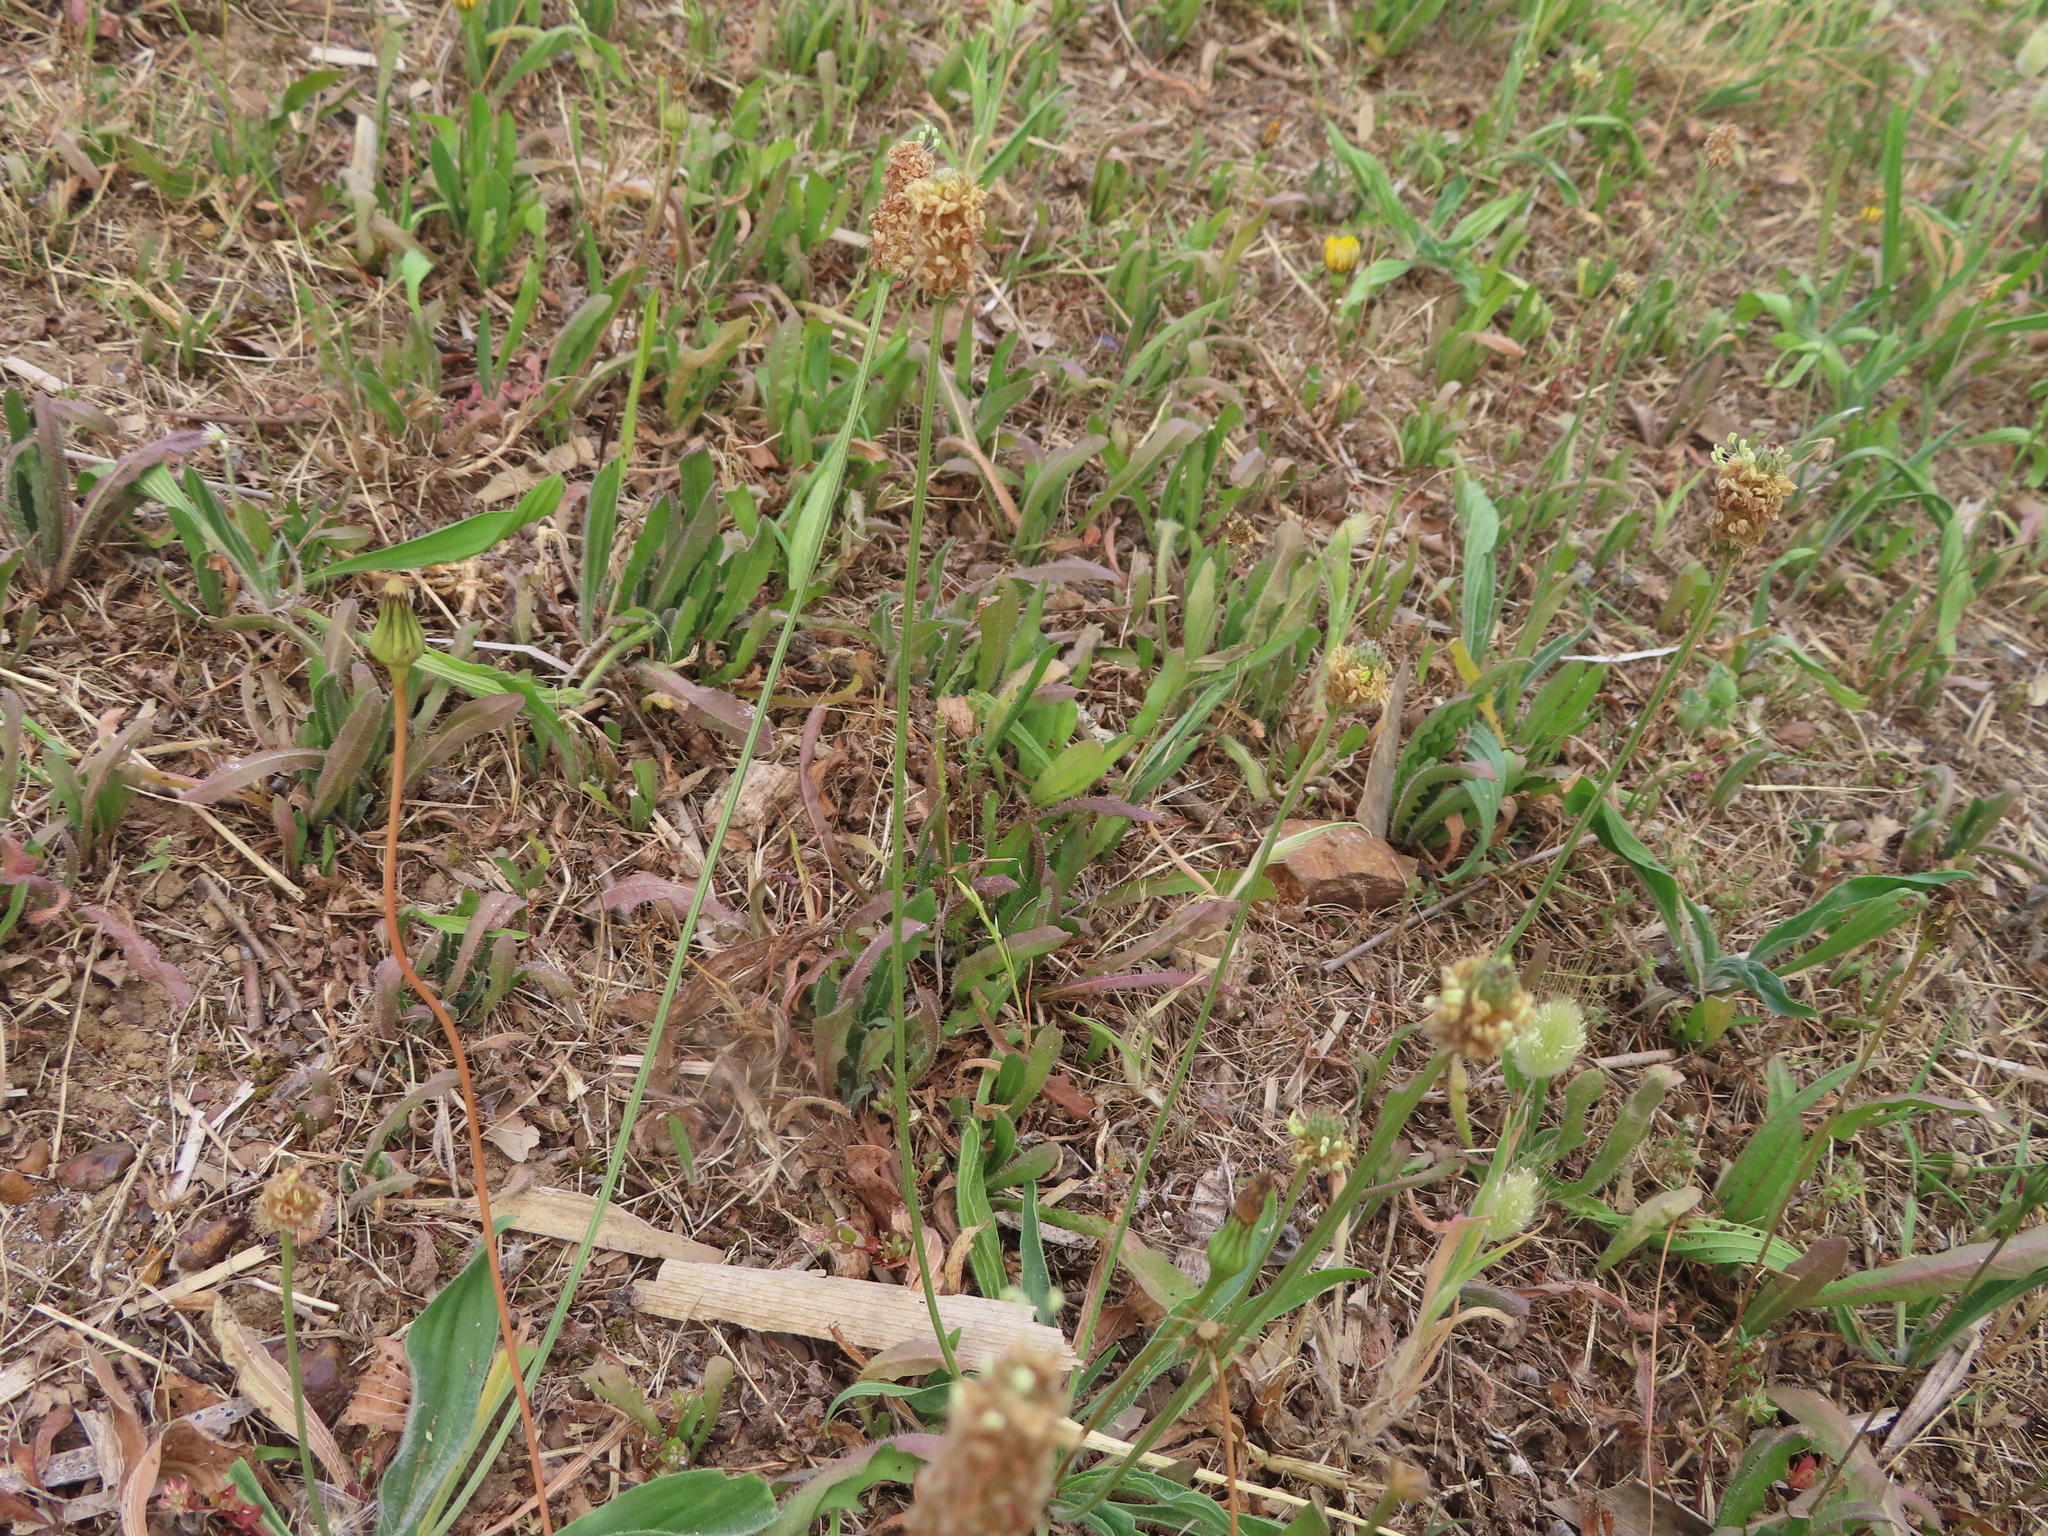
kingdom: Plantae
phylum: Tracheophyta
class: Magnoliopsida
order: Lamiales
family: Plantaginaceae
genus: Plantago
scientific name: Plantago lanceolata
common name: Ribwort plantain
